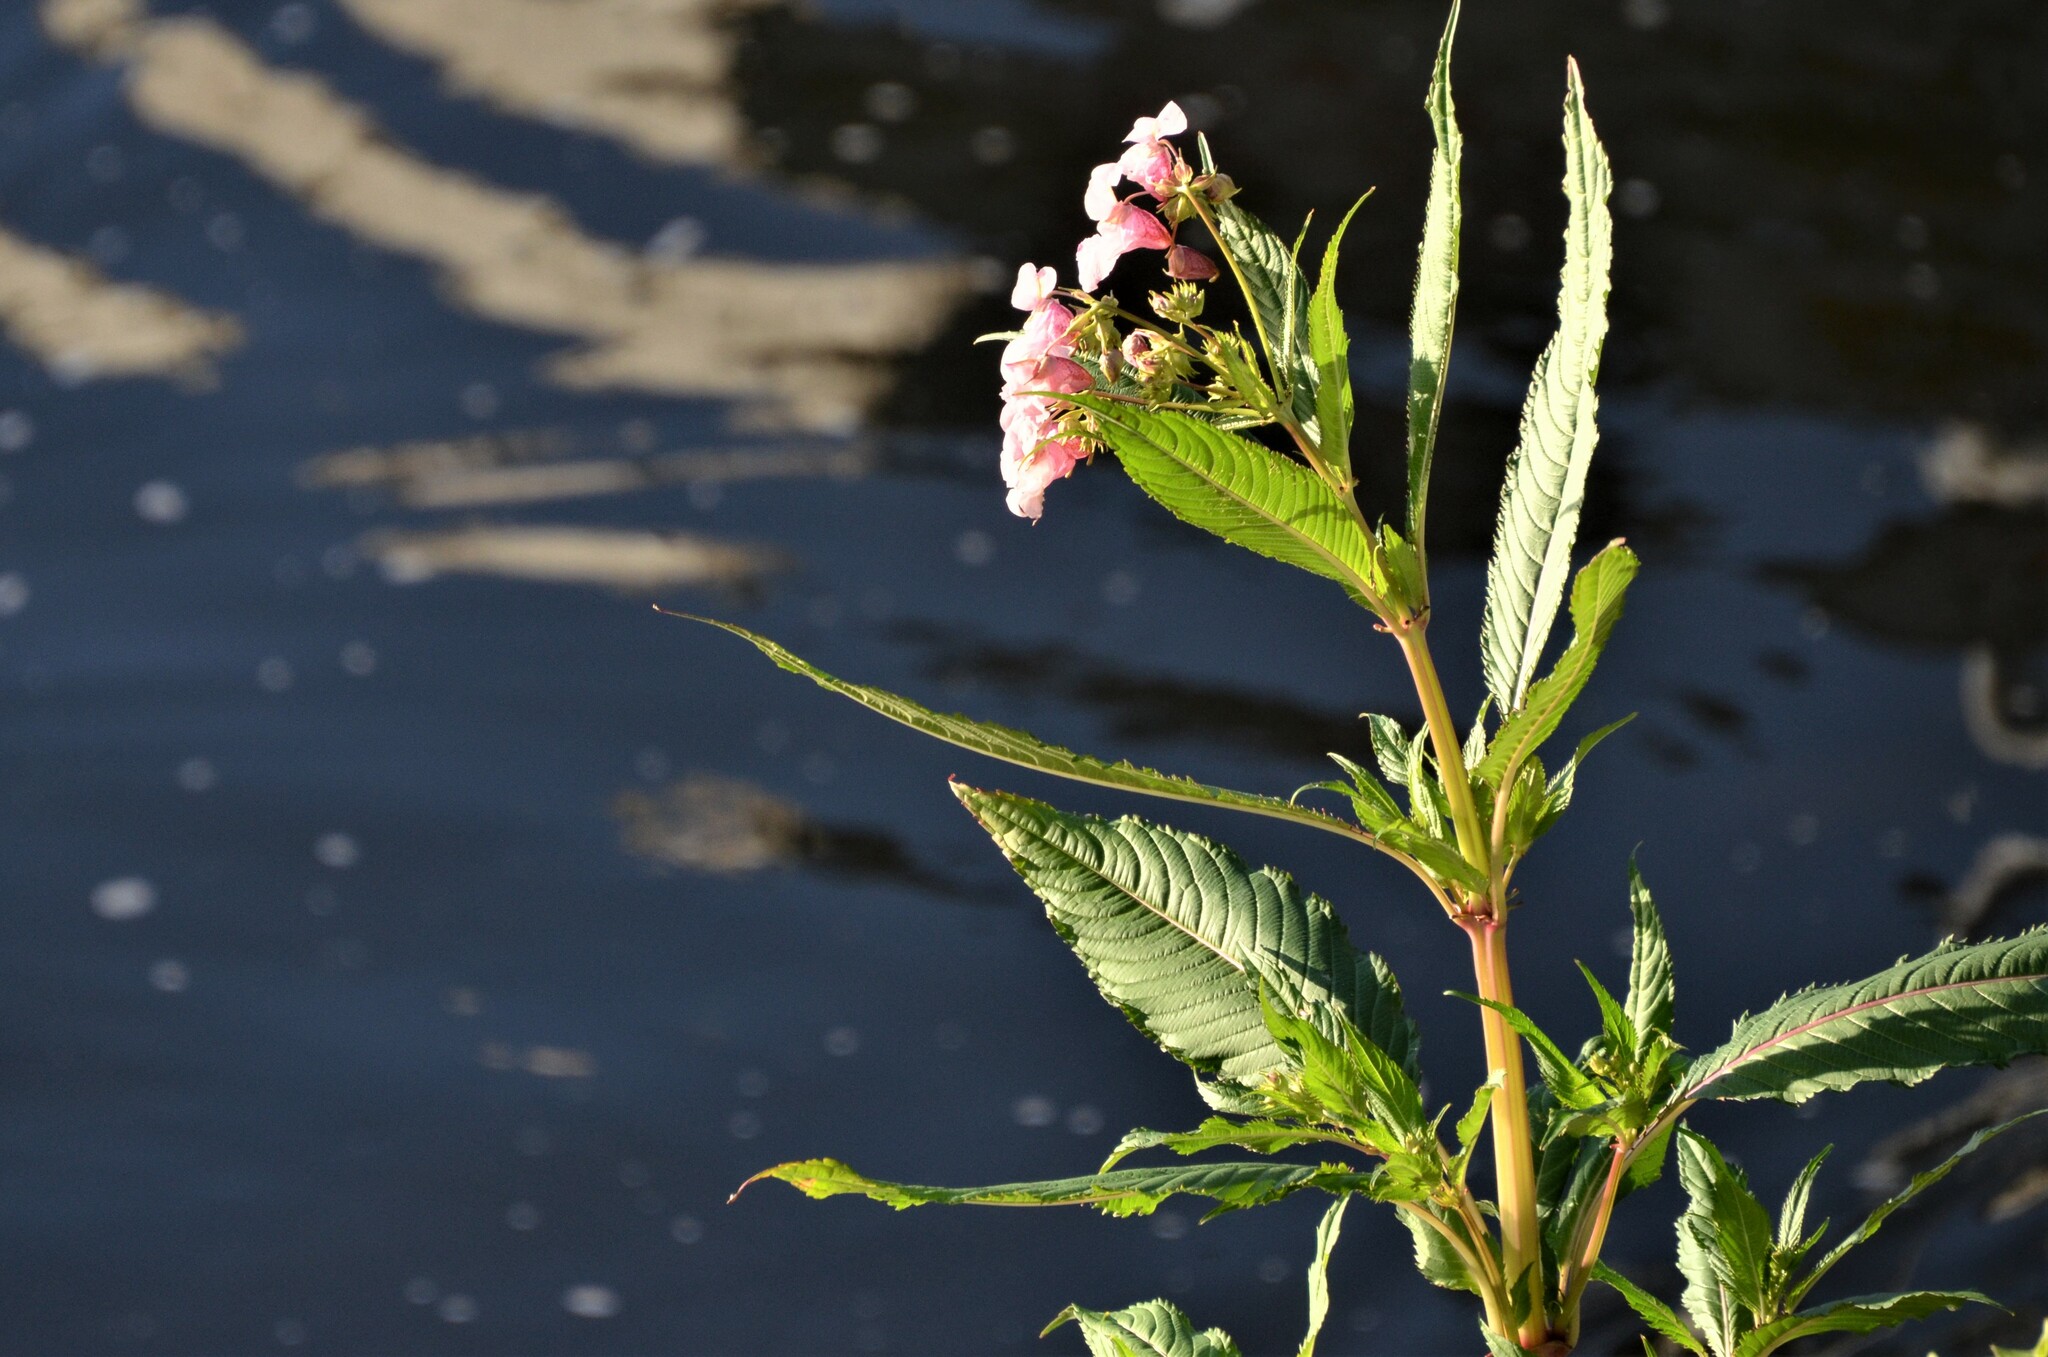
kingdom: Plantae
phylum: Tracheophyta
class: Magnoliopsida
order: Ericales
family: Balsaminaceae
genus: Impatiens
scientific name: Impatiens glandulifera
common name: Himalayan balsam
